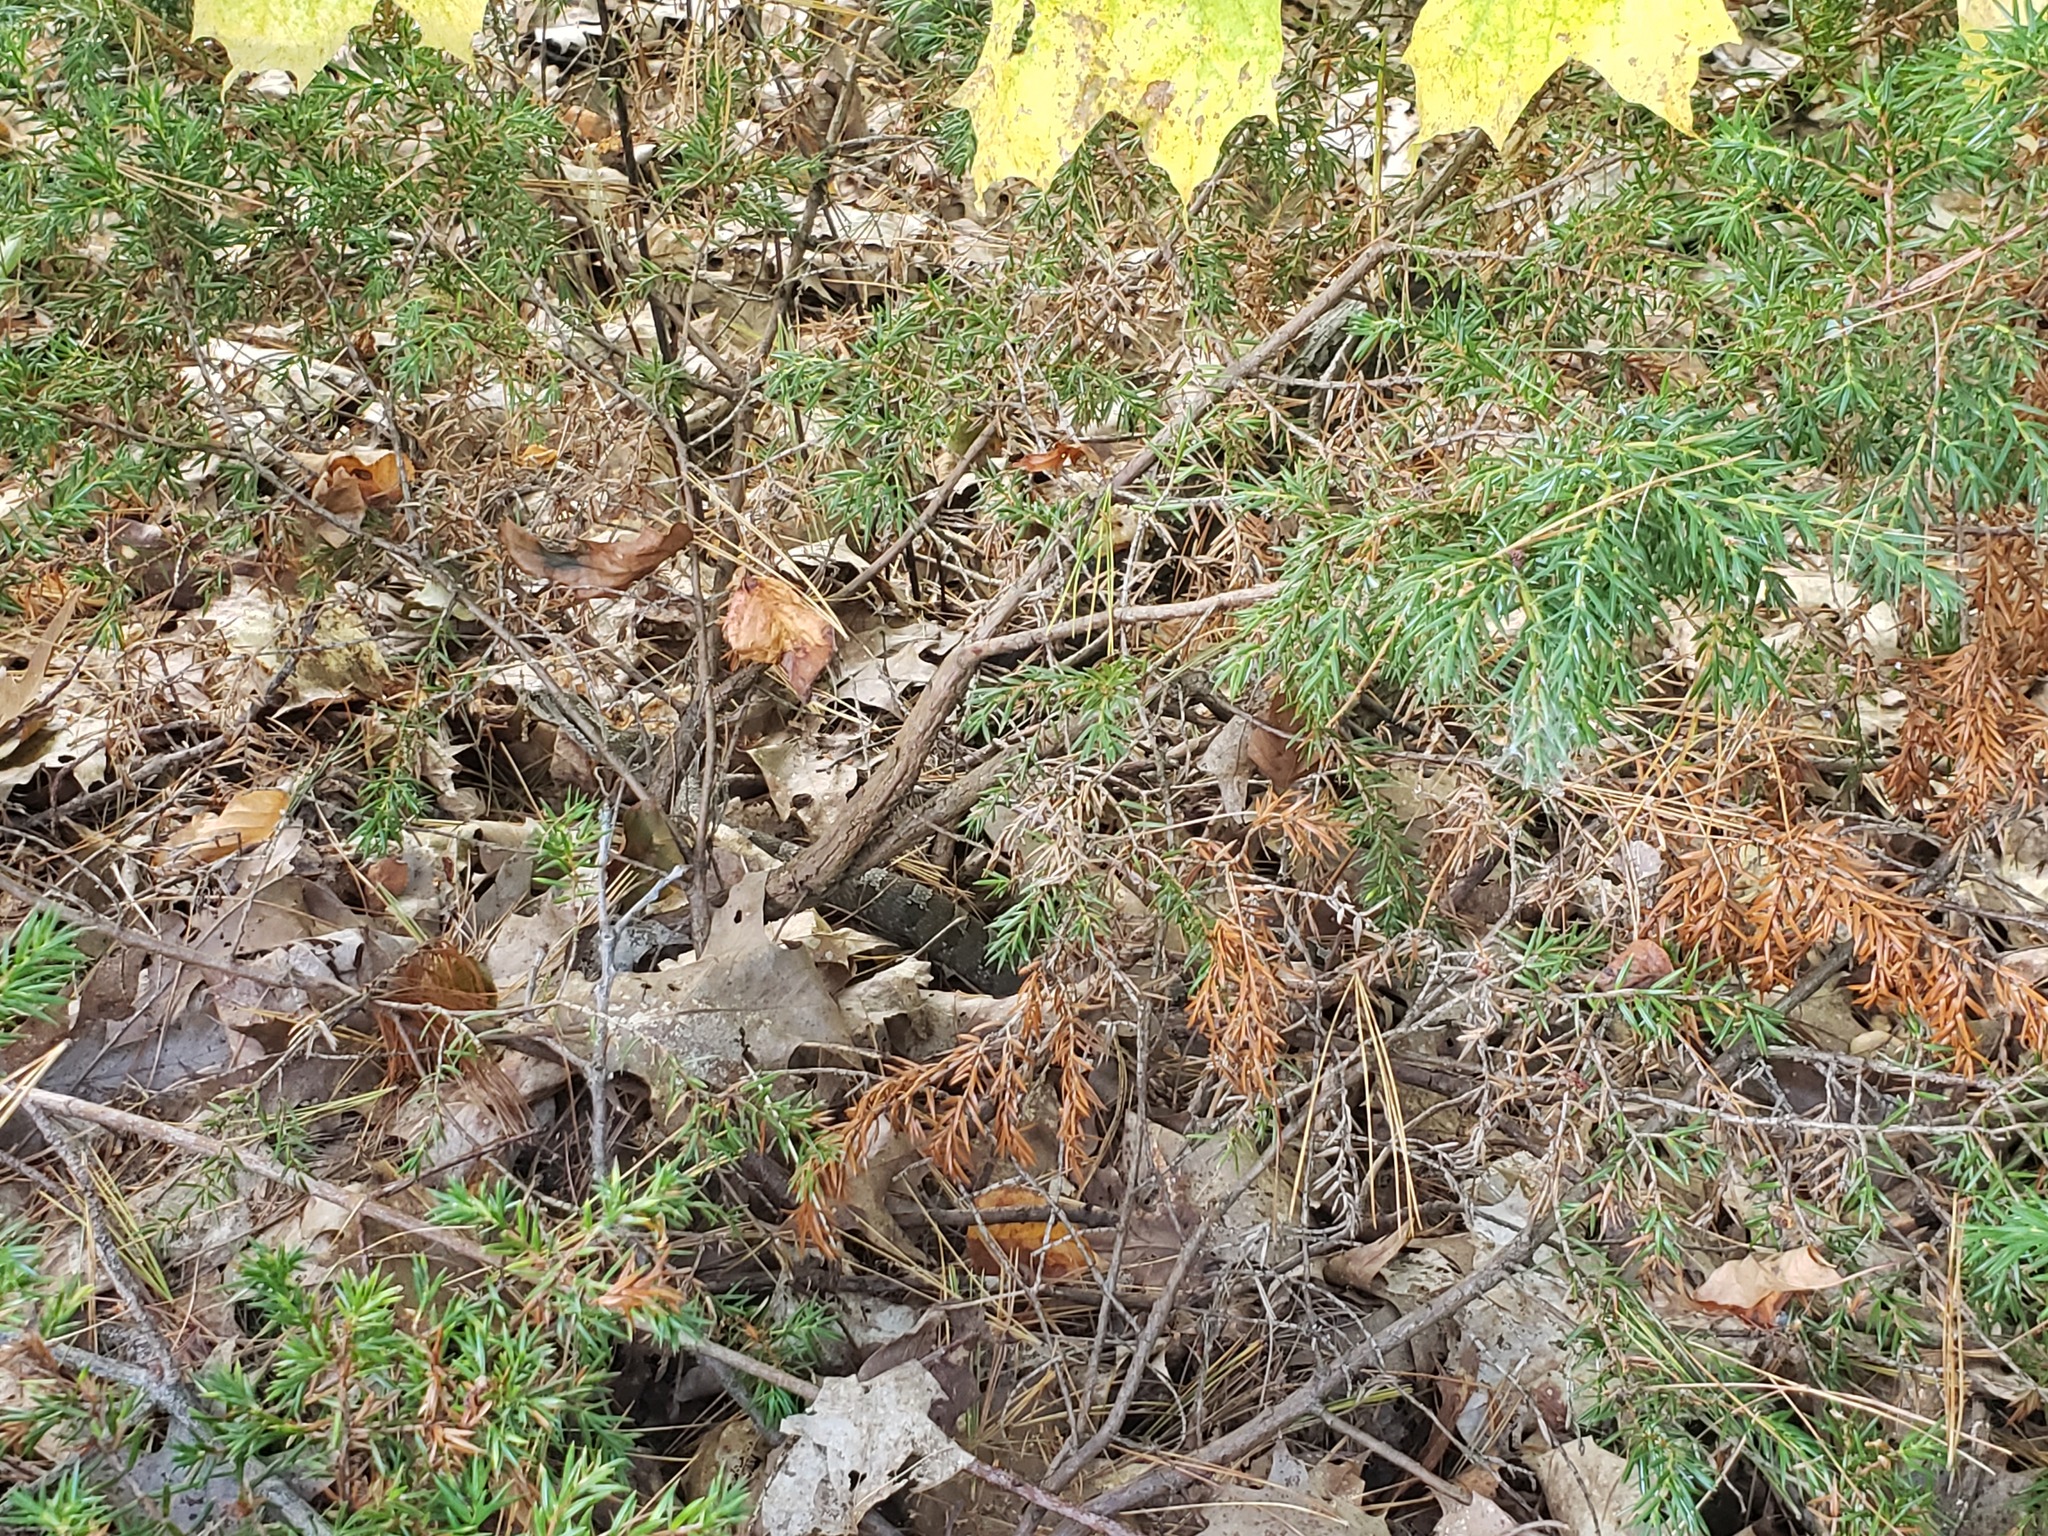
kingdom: Animalia
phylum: Chordata
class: Squamata
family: Colubridae
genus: Heterodon
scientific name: Heterodon platirhinos
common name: Eastern hognose snake
